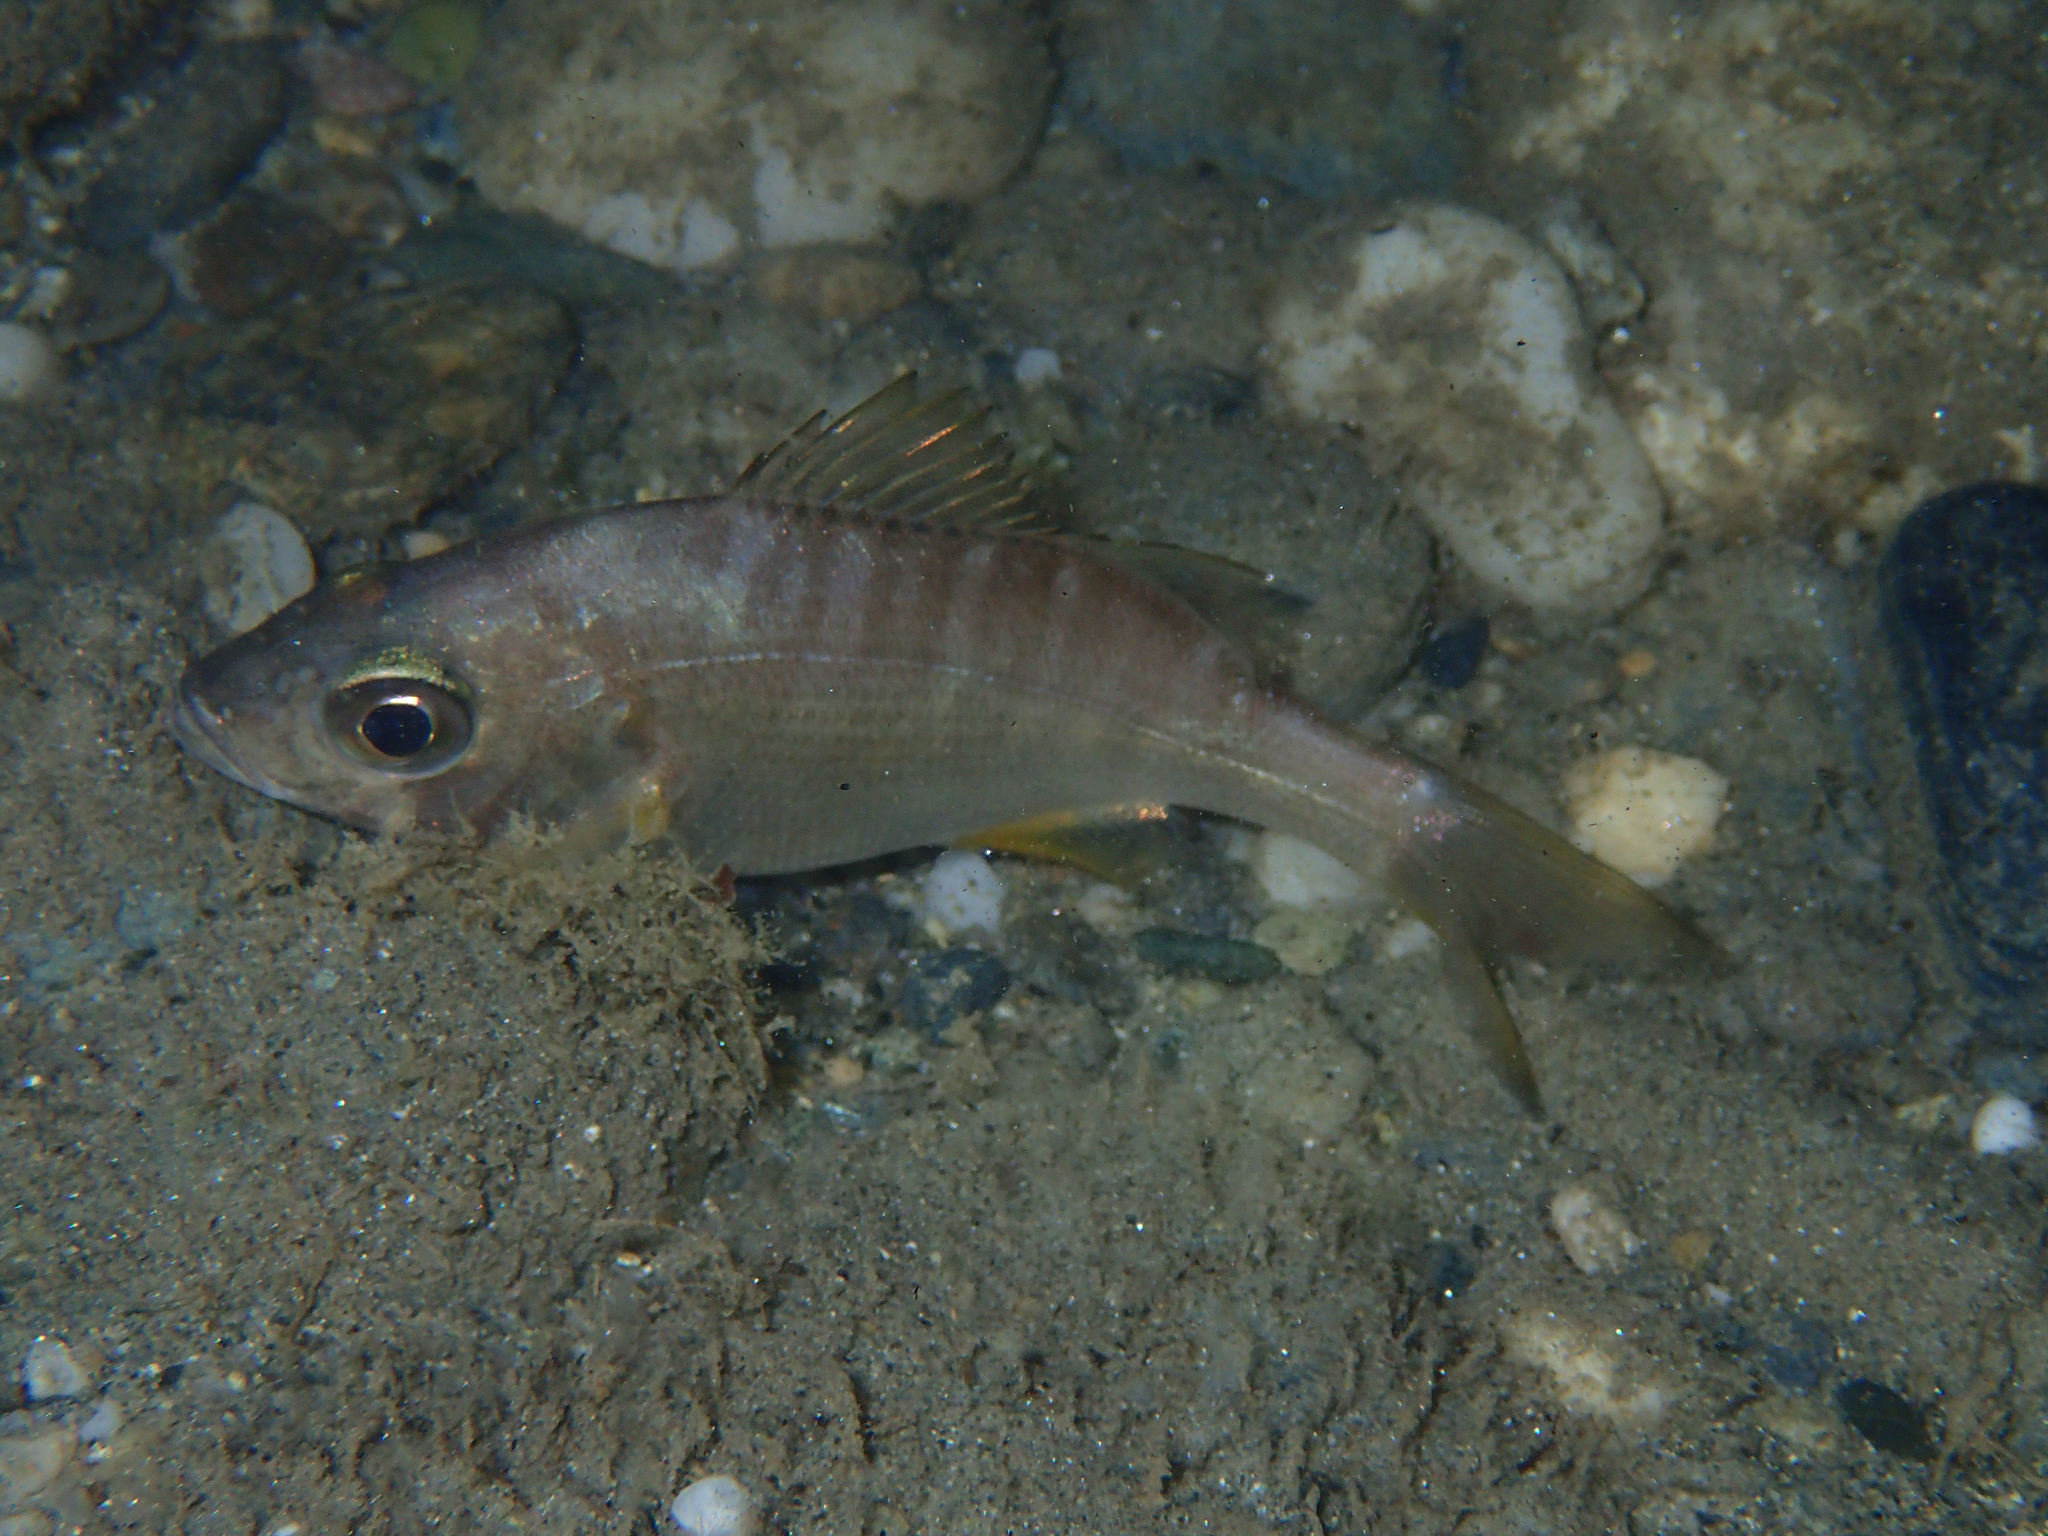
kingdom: Animalia
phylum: Chordata
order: Perciformes
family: Haemulidae
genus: Pomadasys
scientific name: Pomadasys incisus
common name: Bastard grunt
